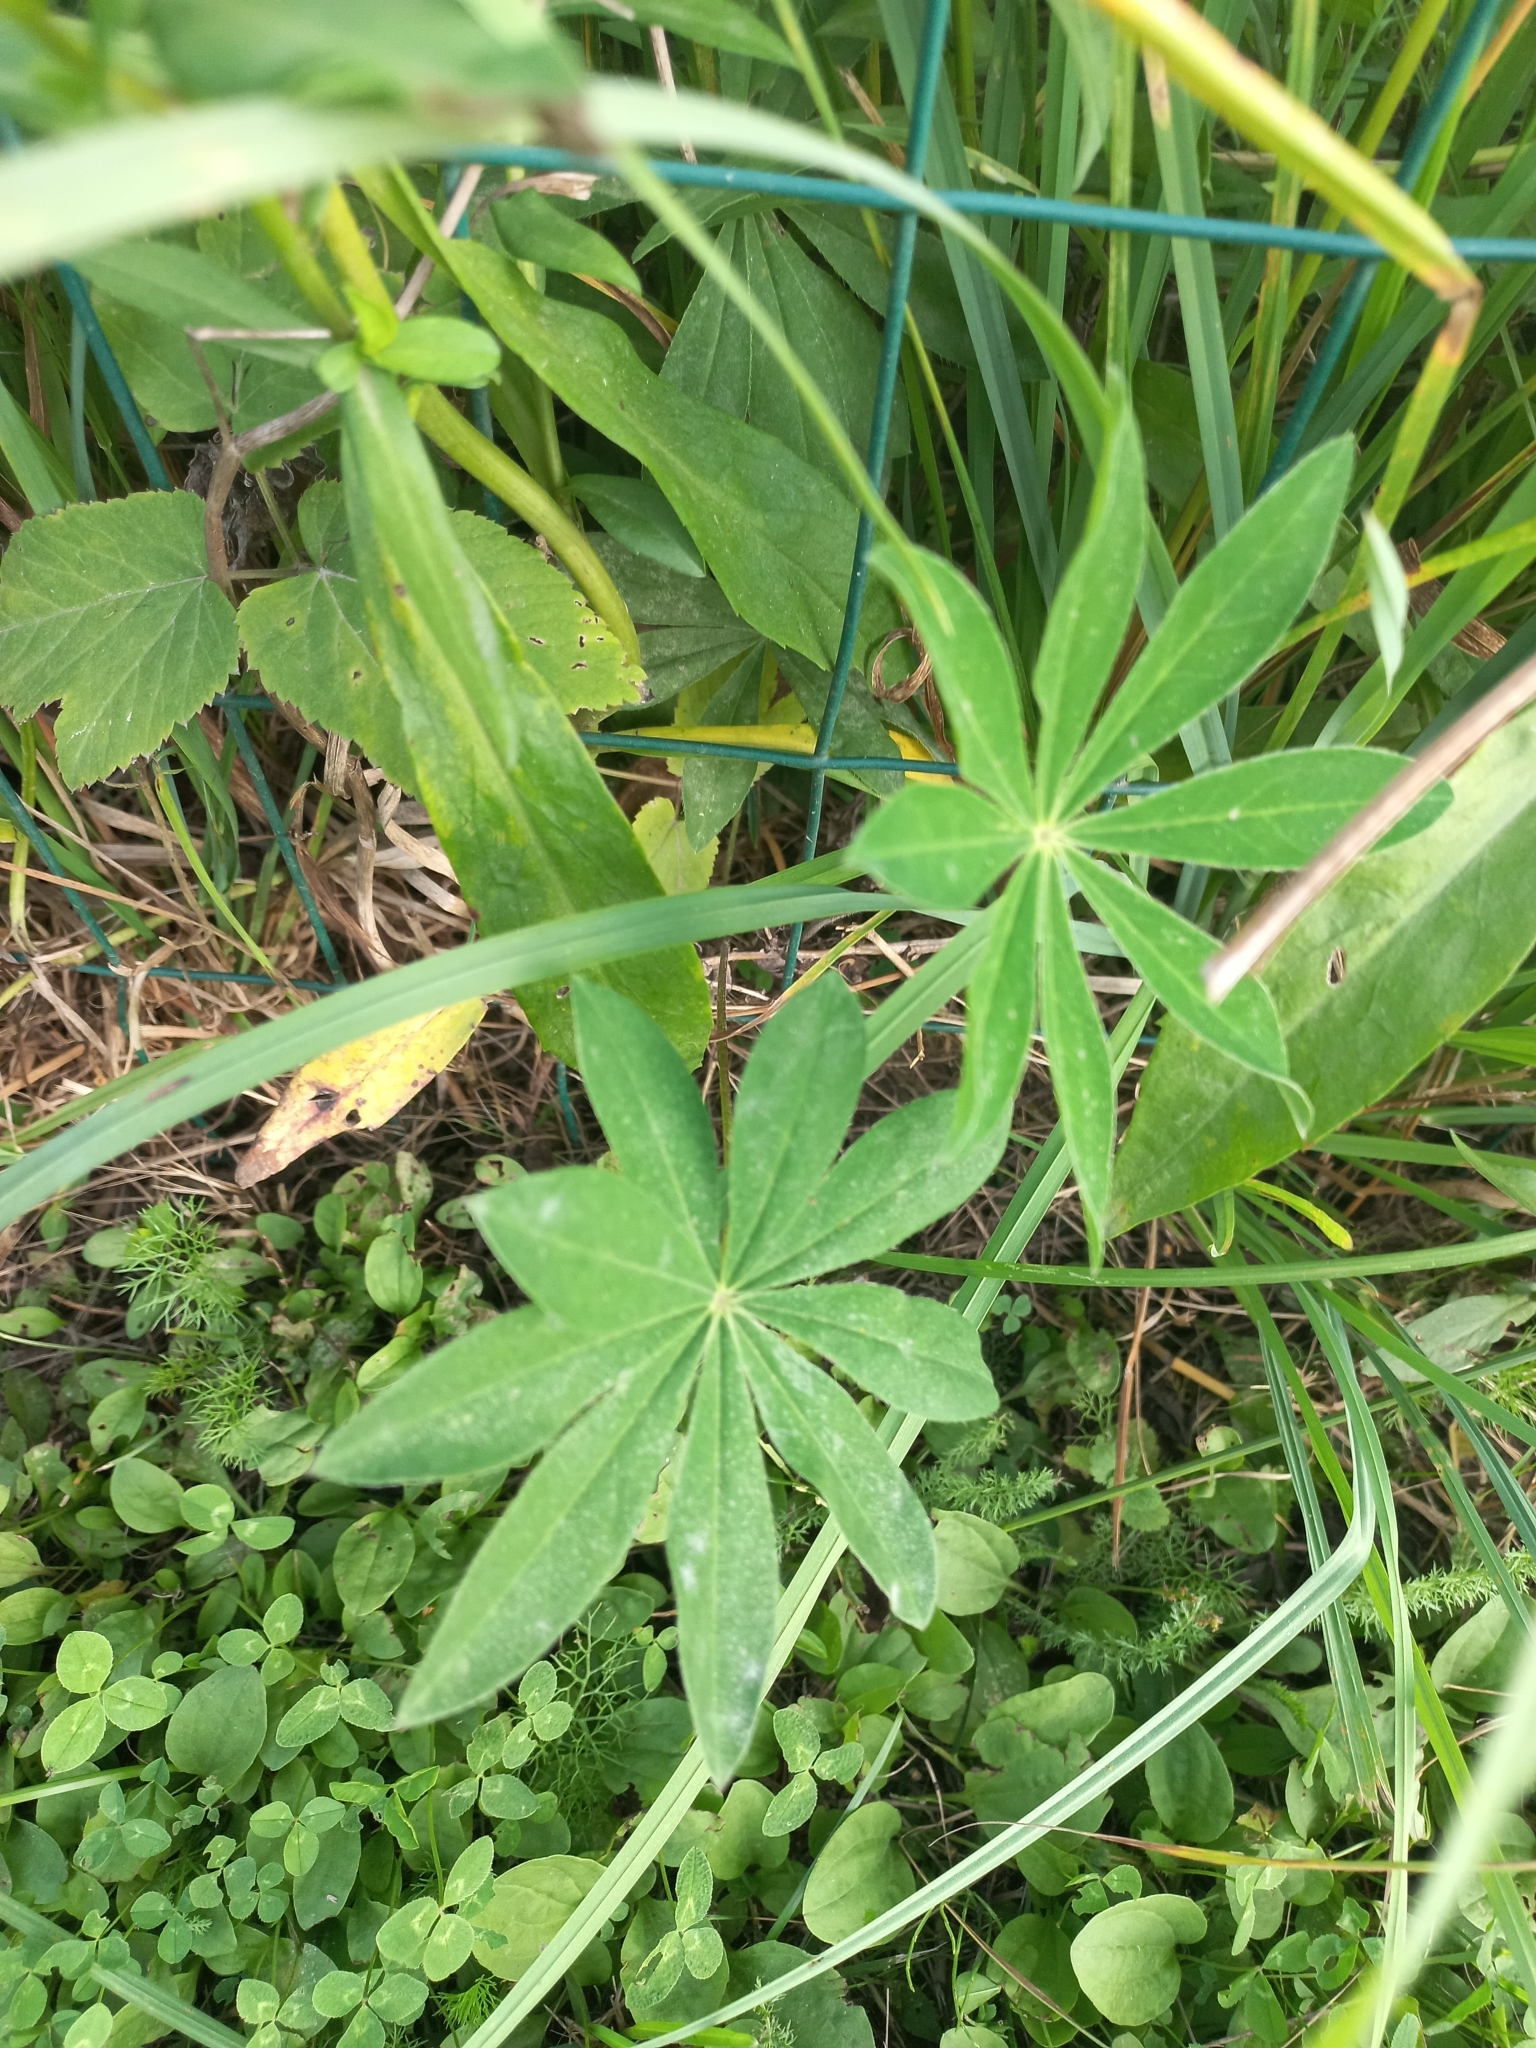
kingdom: Plantae
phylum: Tracheophyta
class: Magnoliopsida
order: Fabales
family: Fabaceae
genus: Lupinus
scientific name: Lupinus polyphyllus
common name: Garden lupin
